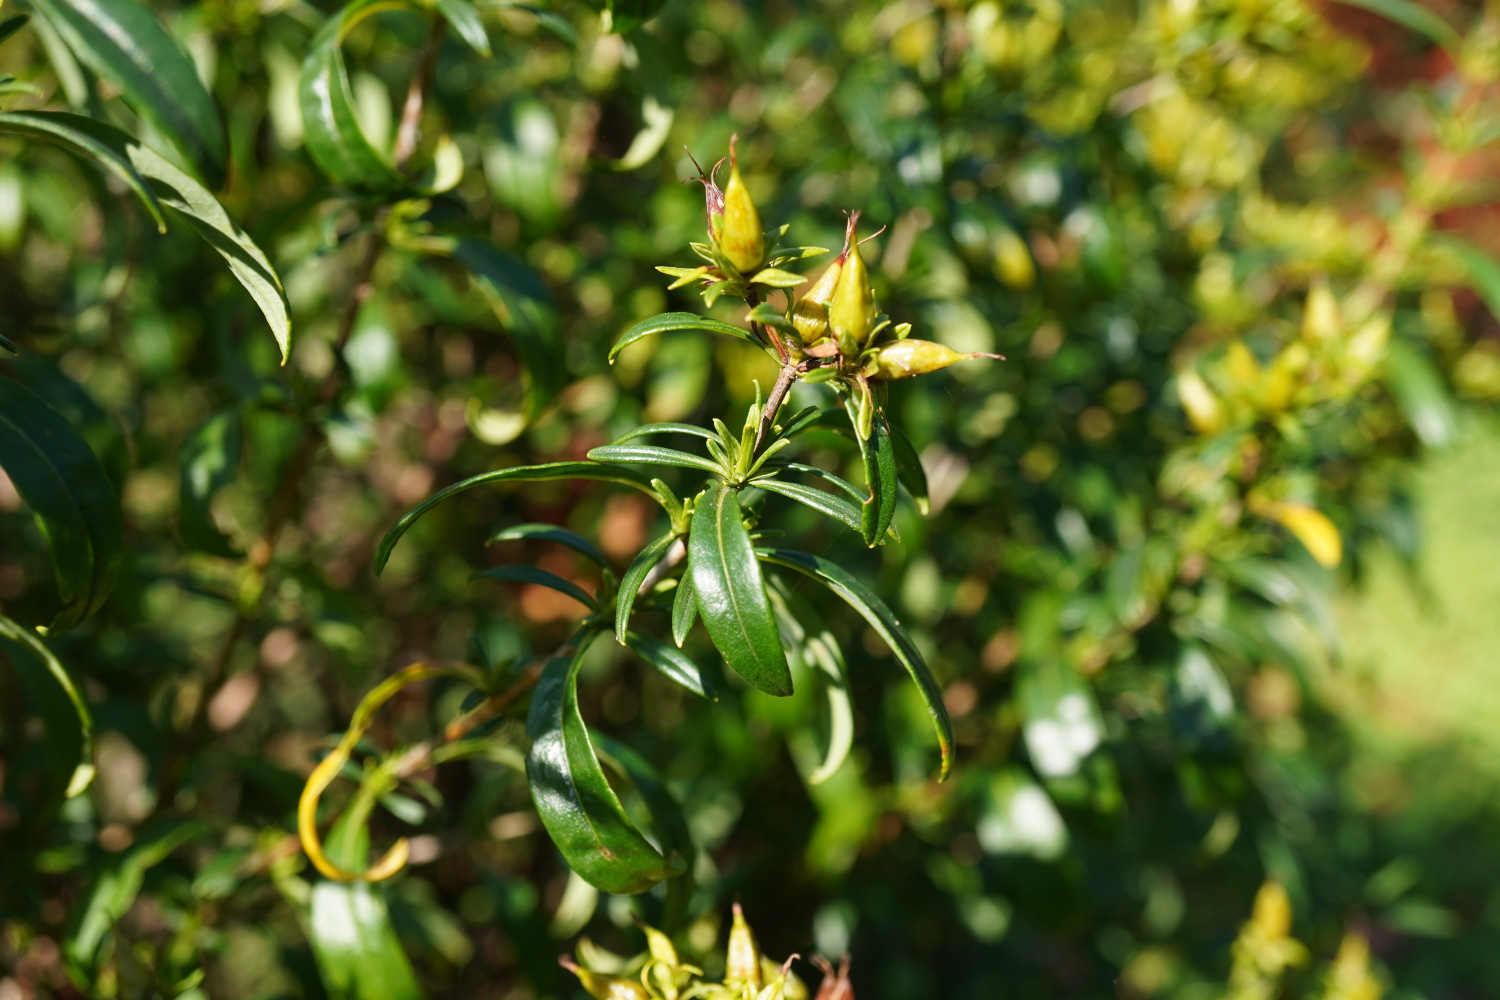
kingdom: Plantae
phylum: Tracheophyta
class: Magnoliopsida
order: Malpighiales
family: Hypericaceae
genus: Hypericum
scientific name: Hypericum ascyron
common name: Giant st. john's-wort
